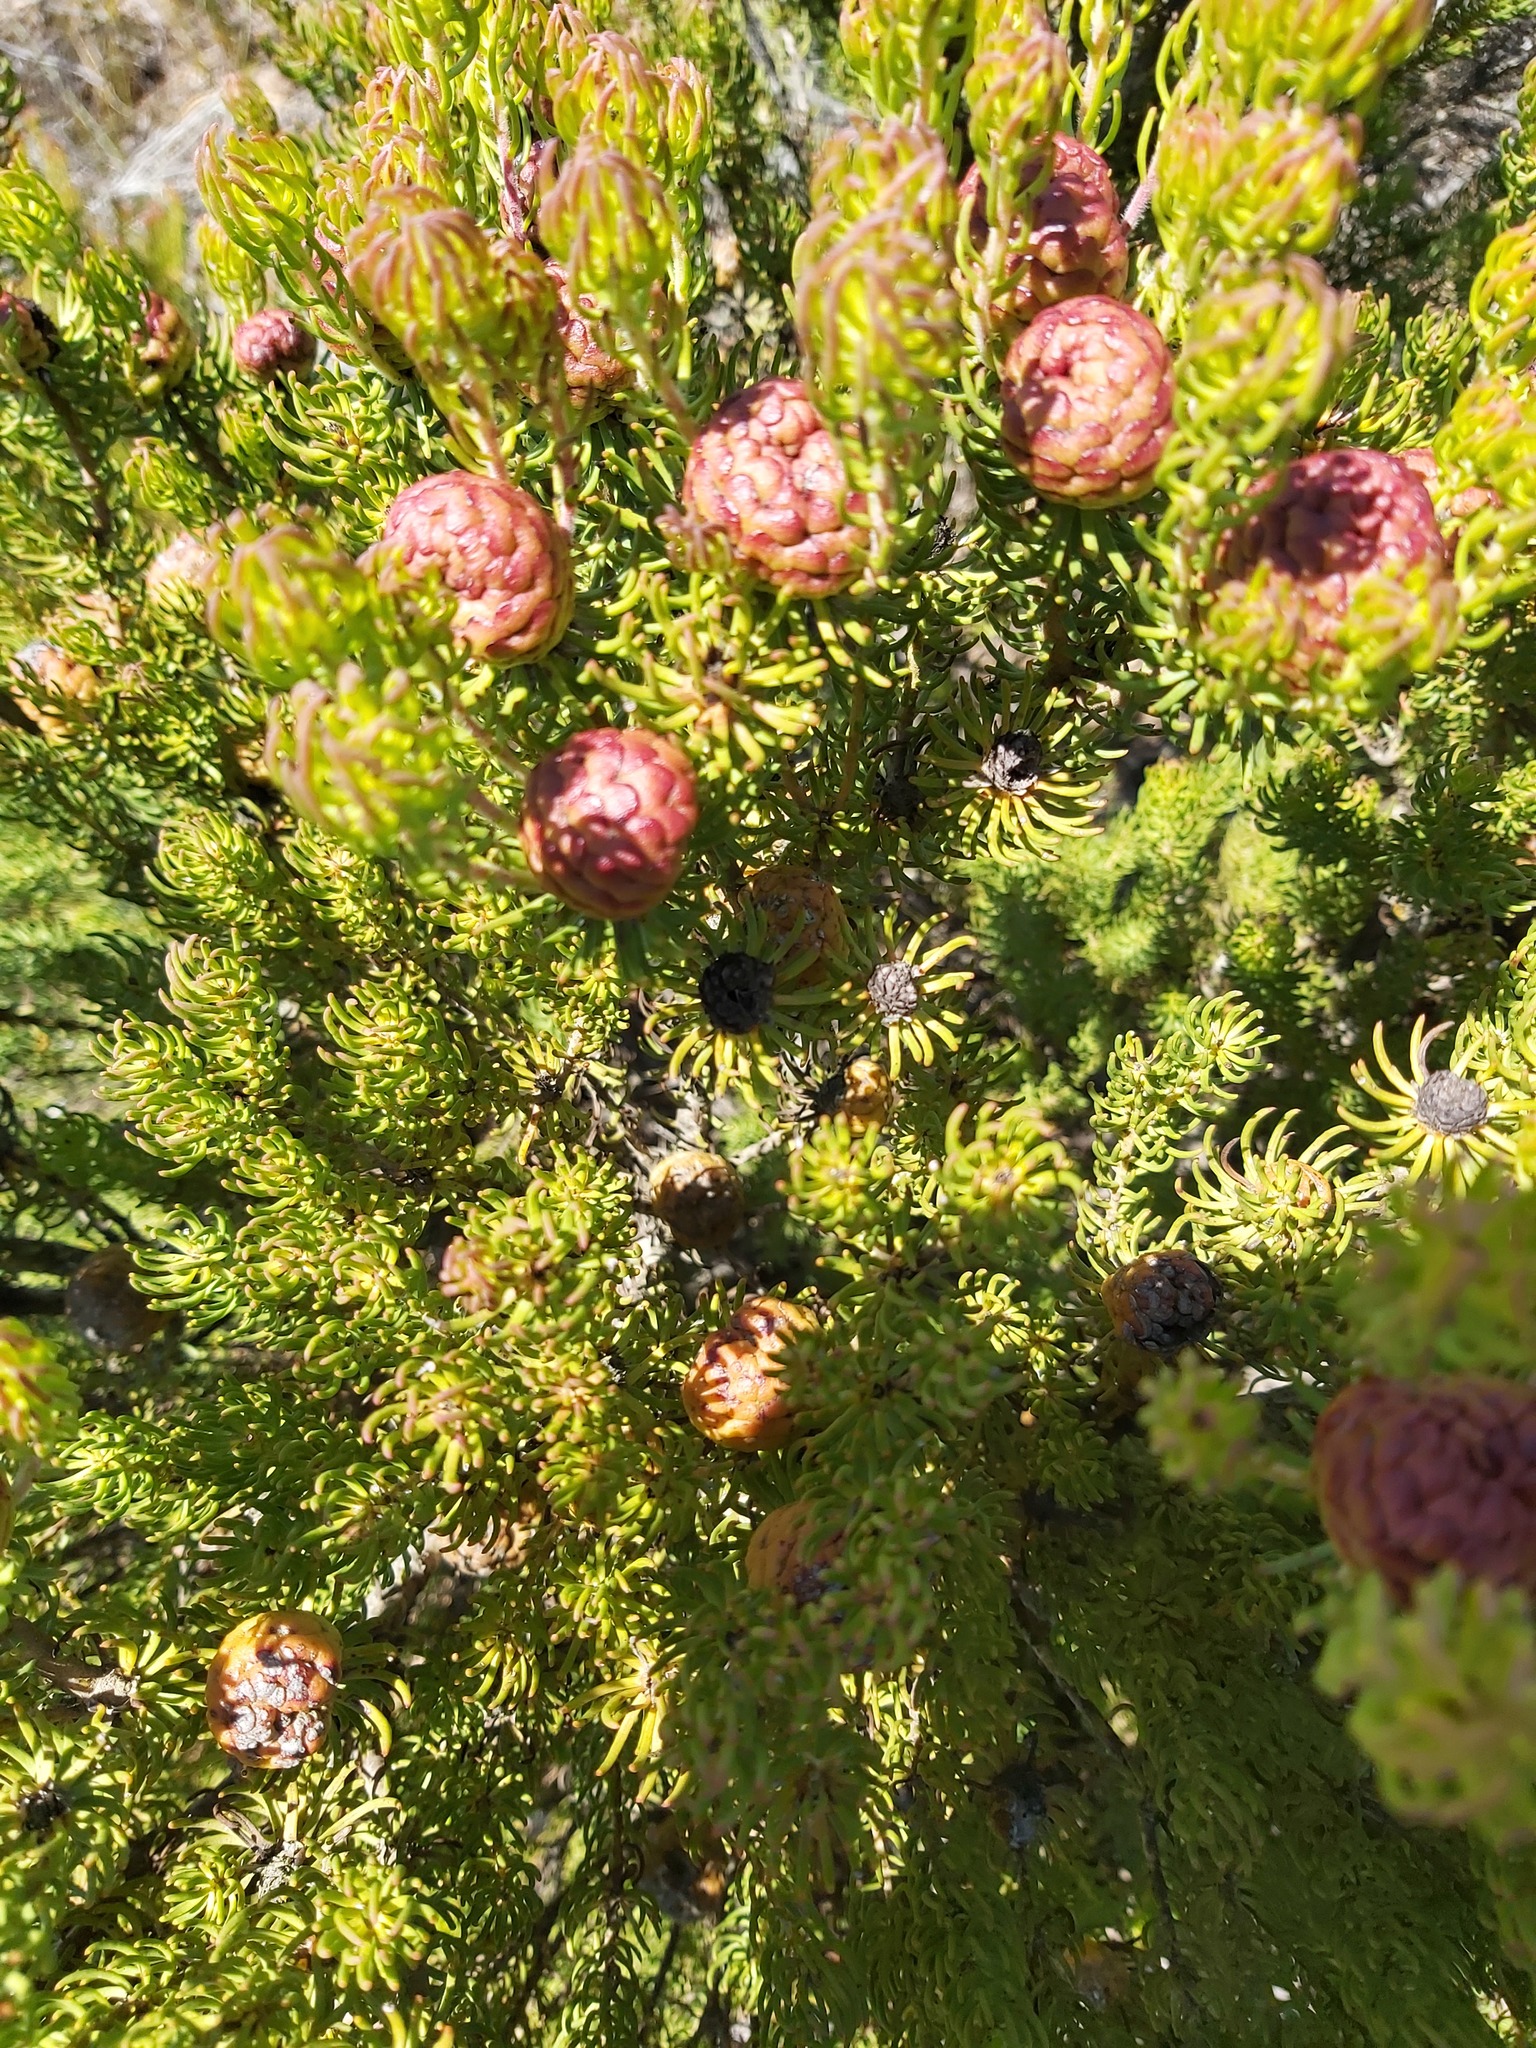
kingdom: Plantae
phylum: Tracheophyta
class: Magnoliopsida
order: Proteales
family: Proteaceae
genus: Leucadendron
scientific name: Leucadendron teretifolium
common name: Needle-leaf conebush
